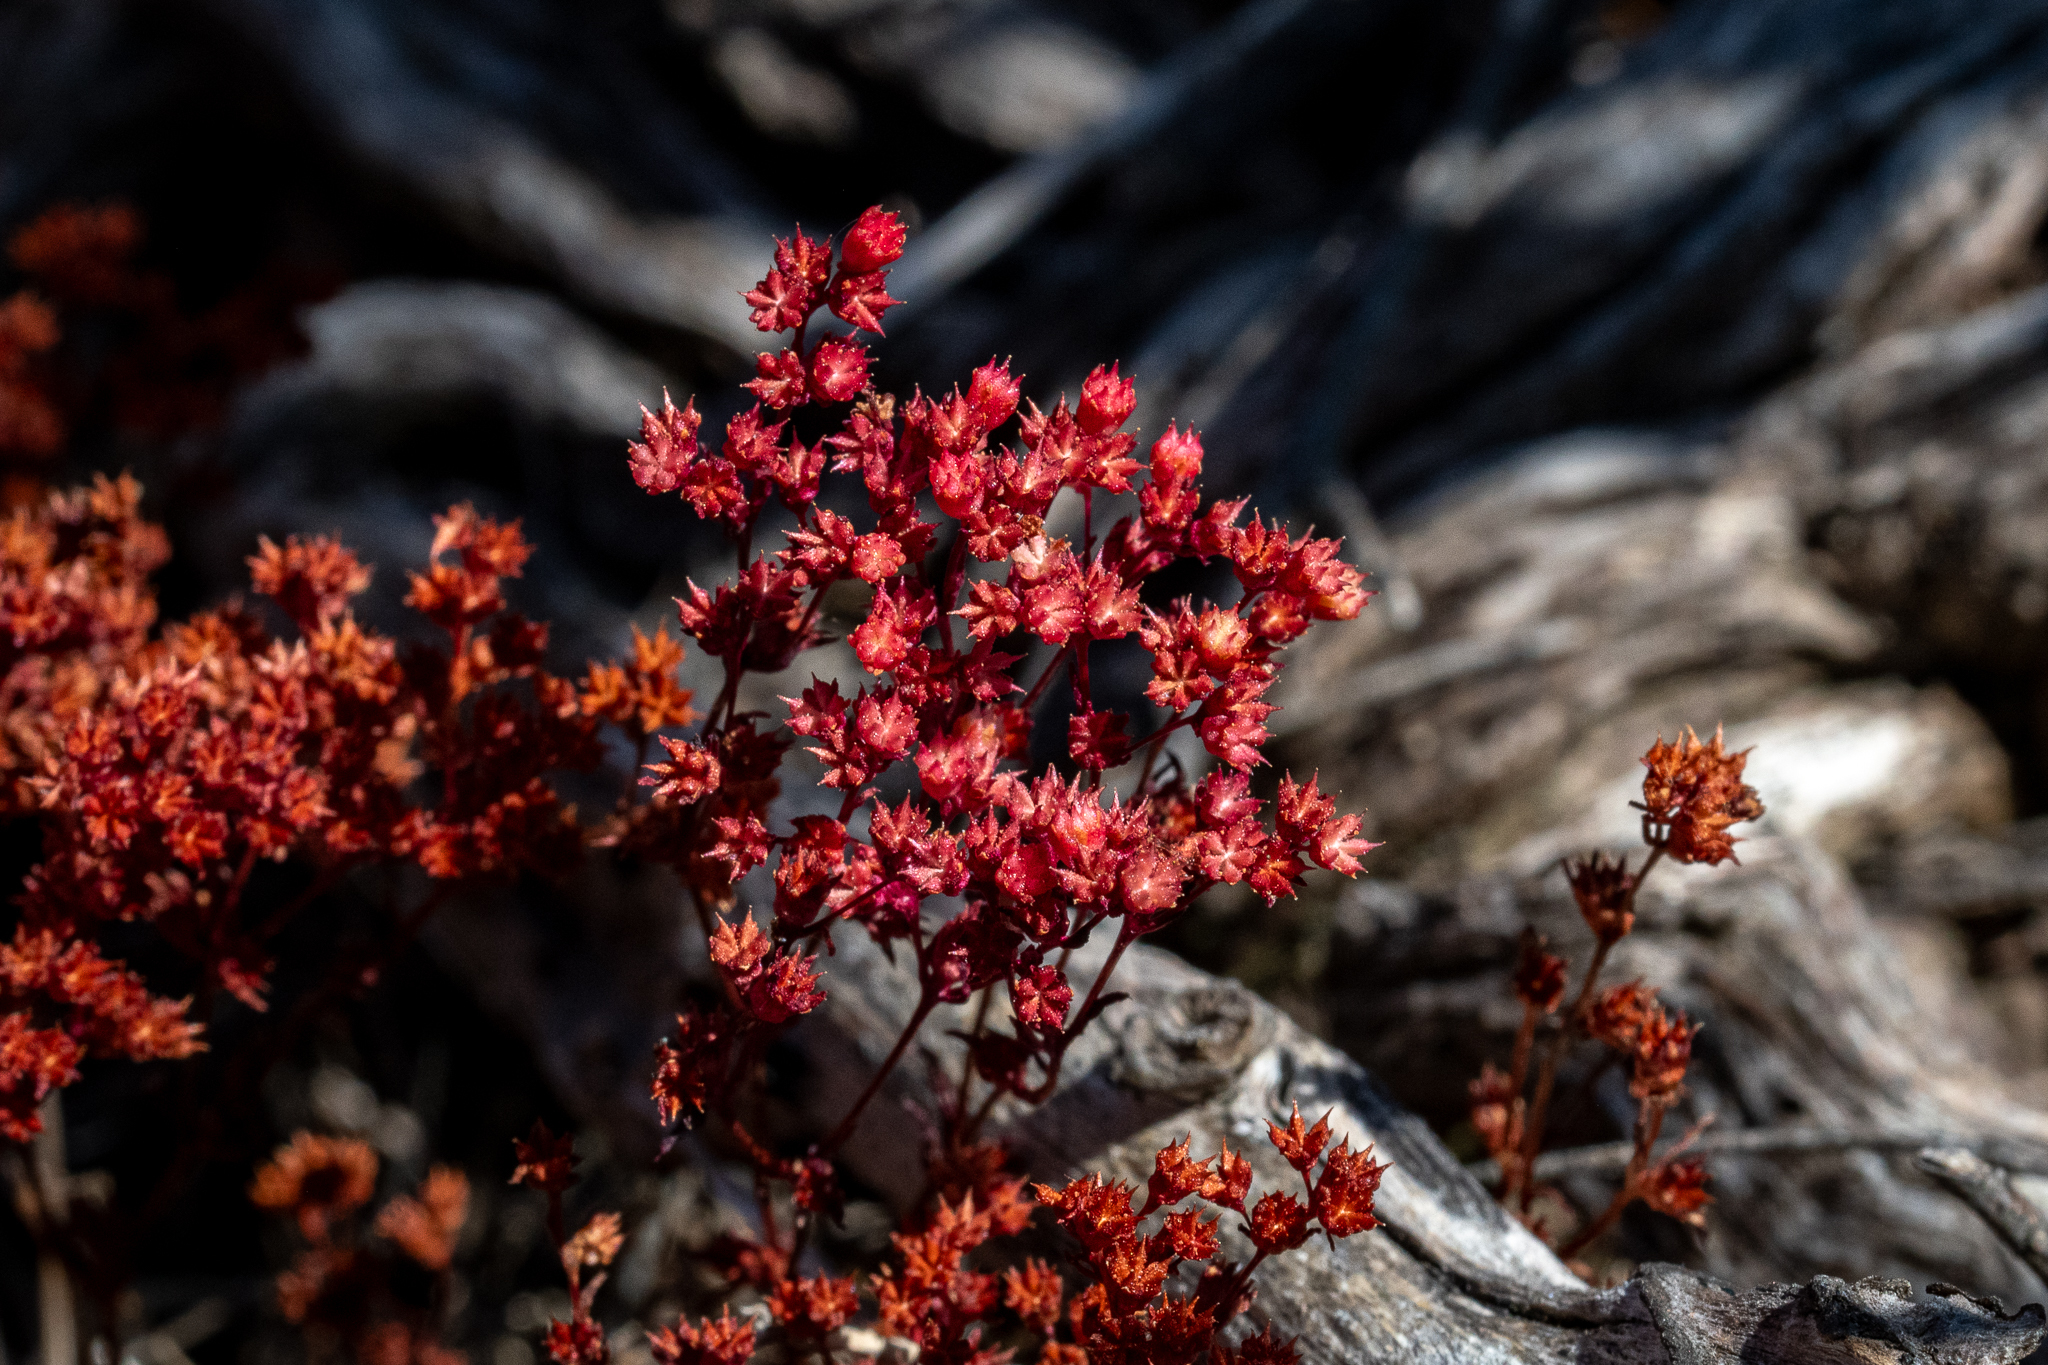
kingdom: Plantae
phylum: Tracheophyta
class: Magnoliopsida
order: Saxifragales
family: Crassulaceae
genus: Crassula
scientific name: Crassula glomerata
